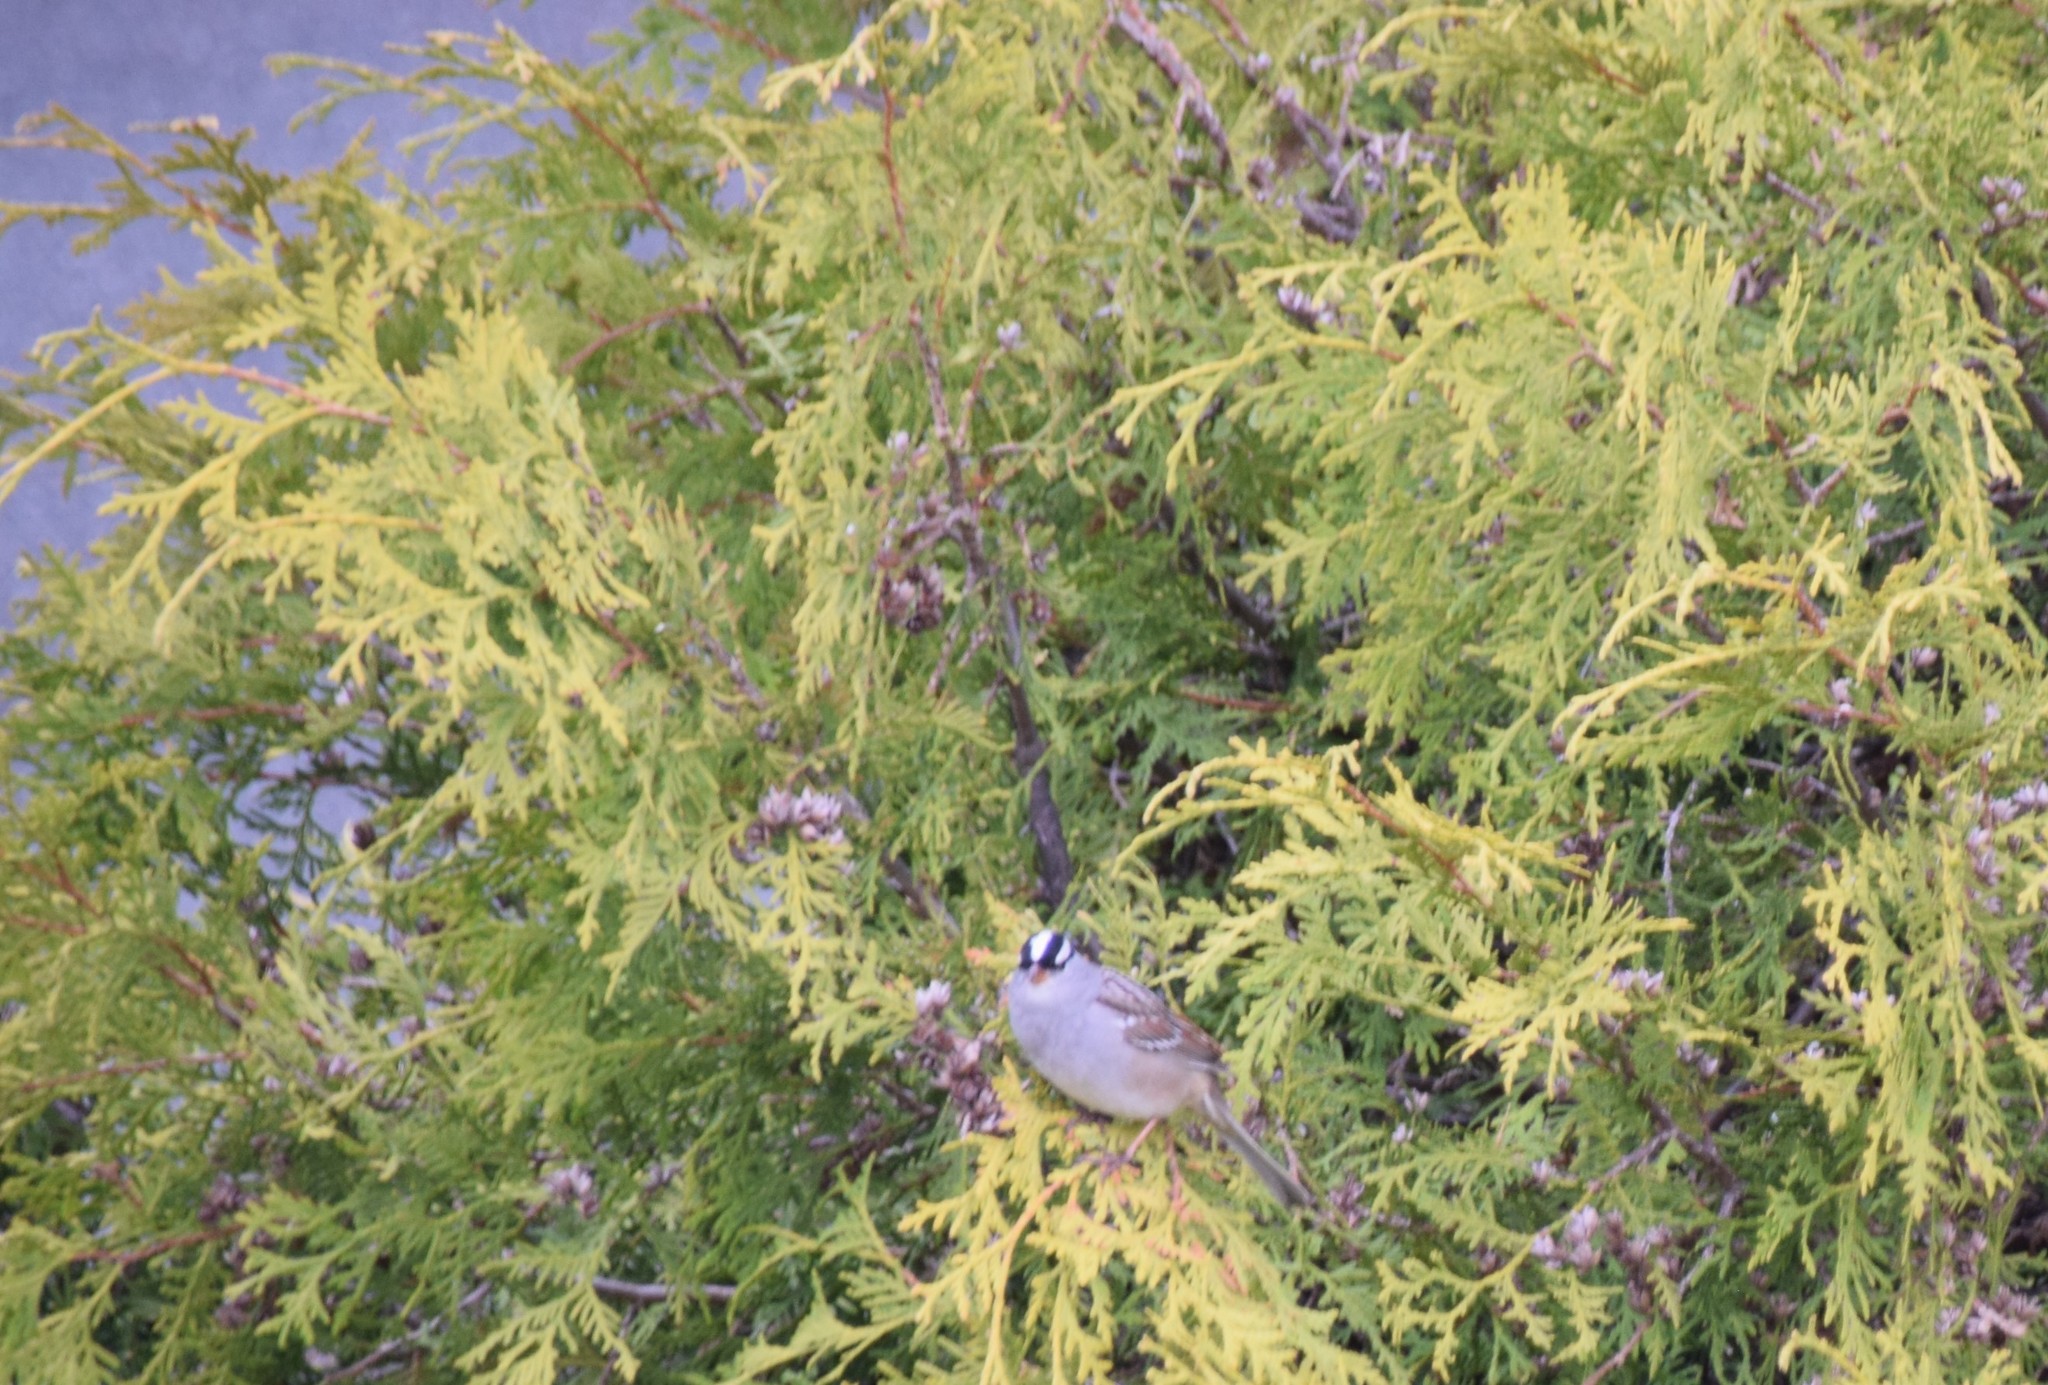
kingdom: Animalia
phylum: Chordata
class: Aves
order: Passeriformes
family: Passerellidae
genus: Zonotrichia
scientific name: Zonotrichia leucophrys
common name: White-crowned sparrow
